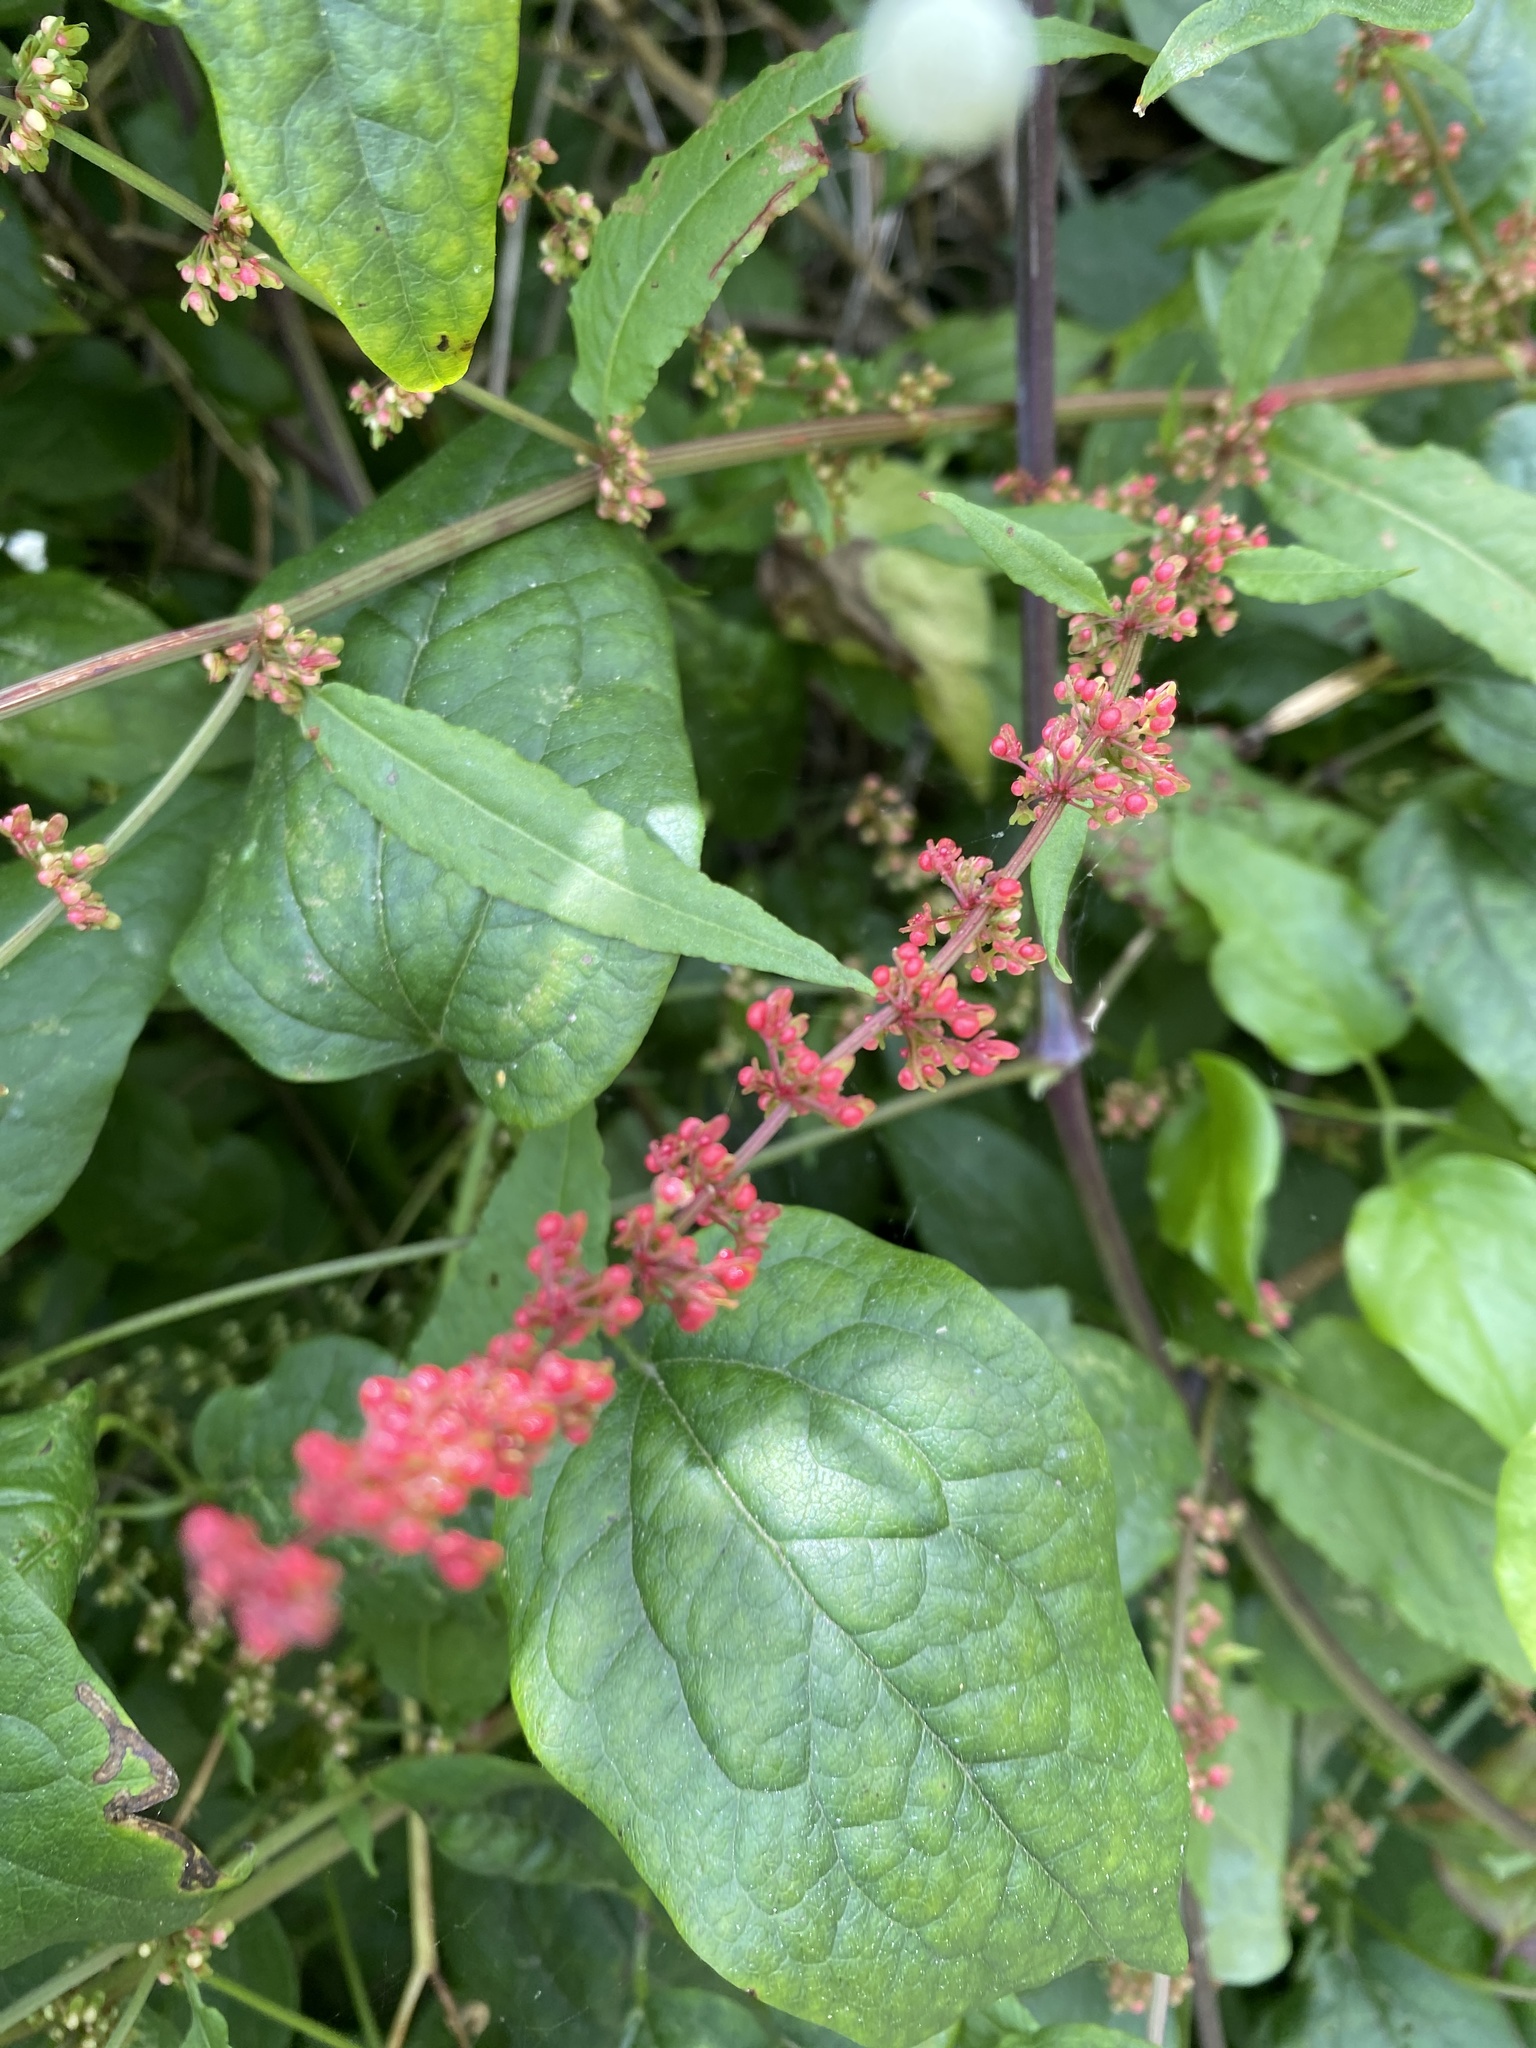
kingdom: Plantae
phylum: Tracheophyta
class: Magnoliopsida
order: Caryophyllales
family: Polygonaceae
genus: Rumex
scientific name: Rumex sanguineus
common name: Wood dock
